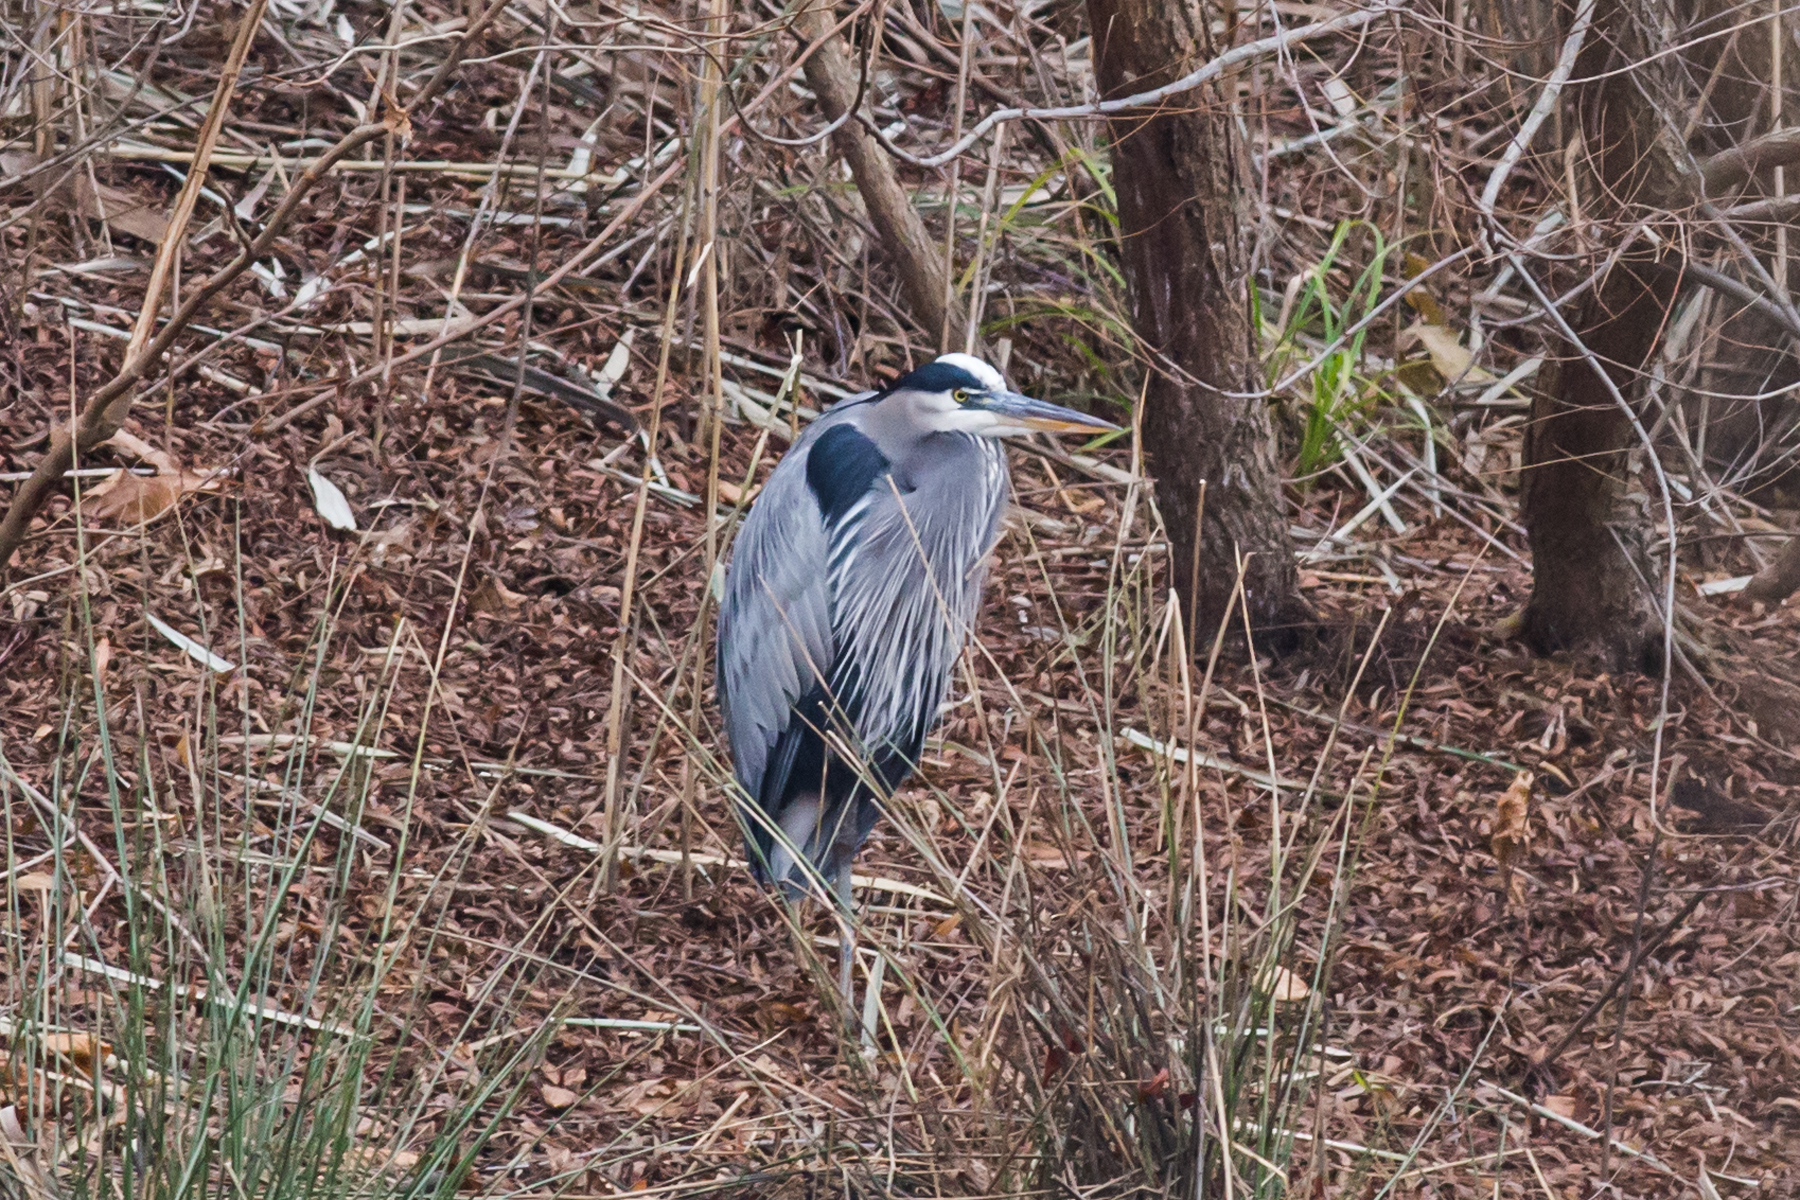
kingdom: Animalia
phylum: Chordata
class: Aves
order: Pelecaniformes
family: Ardeidae
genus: Ardea
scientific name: Ardea herodias
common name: Great blue heron
